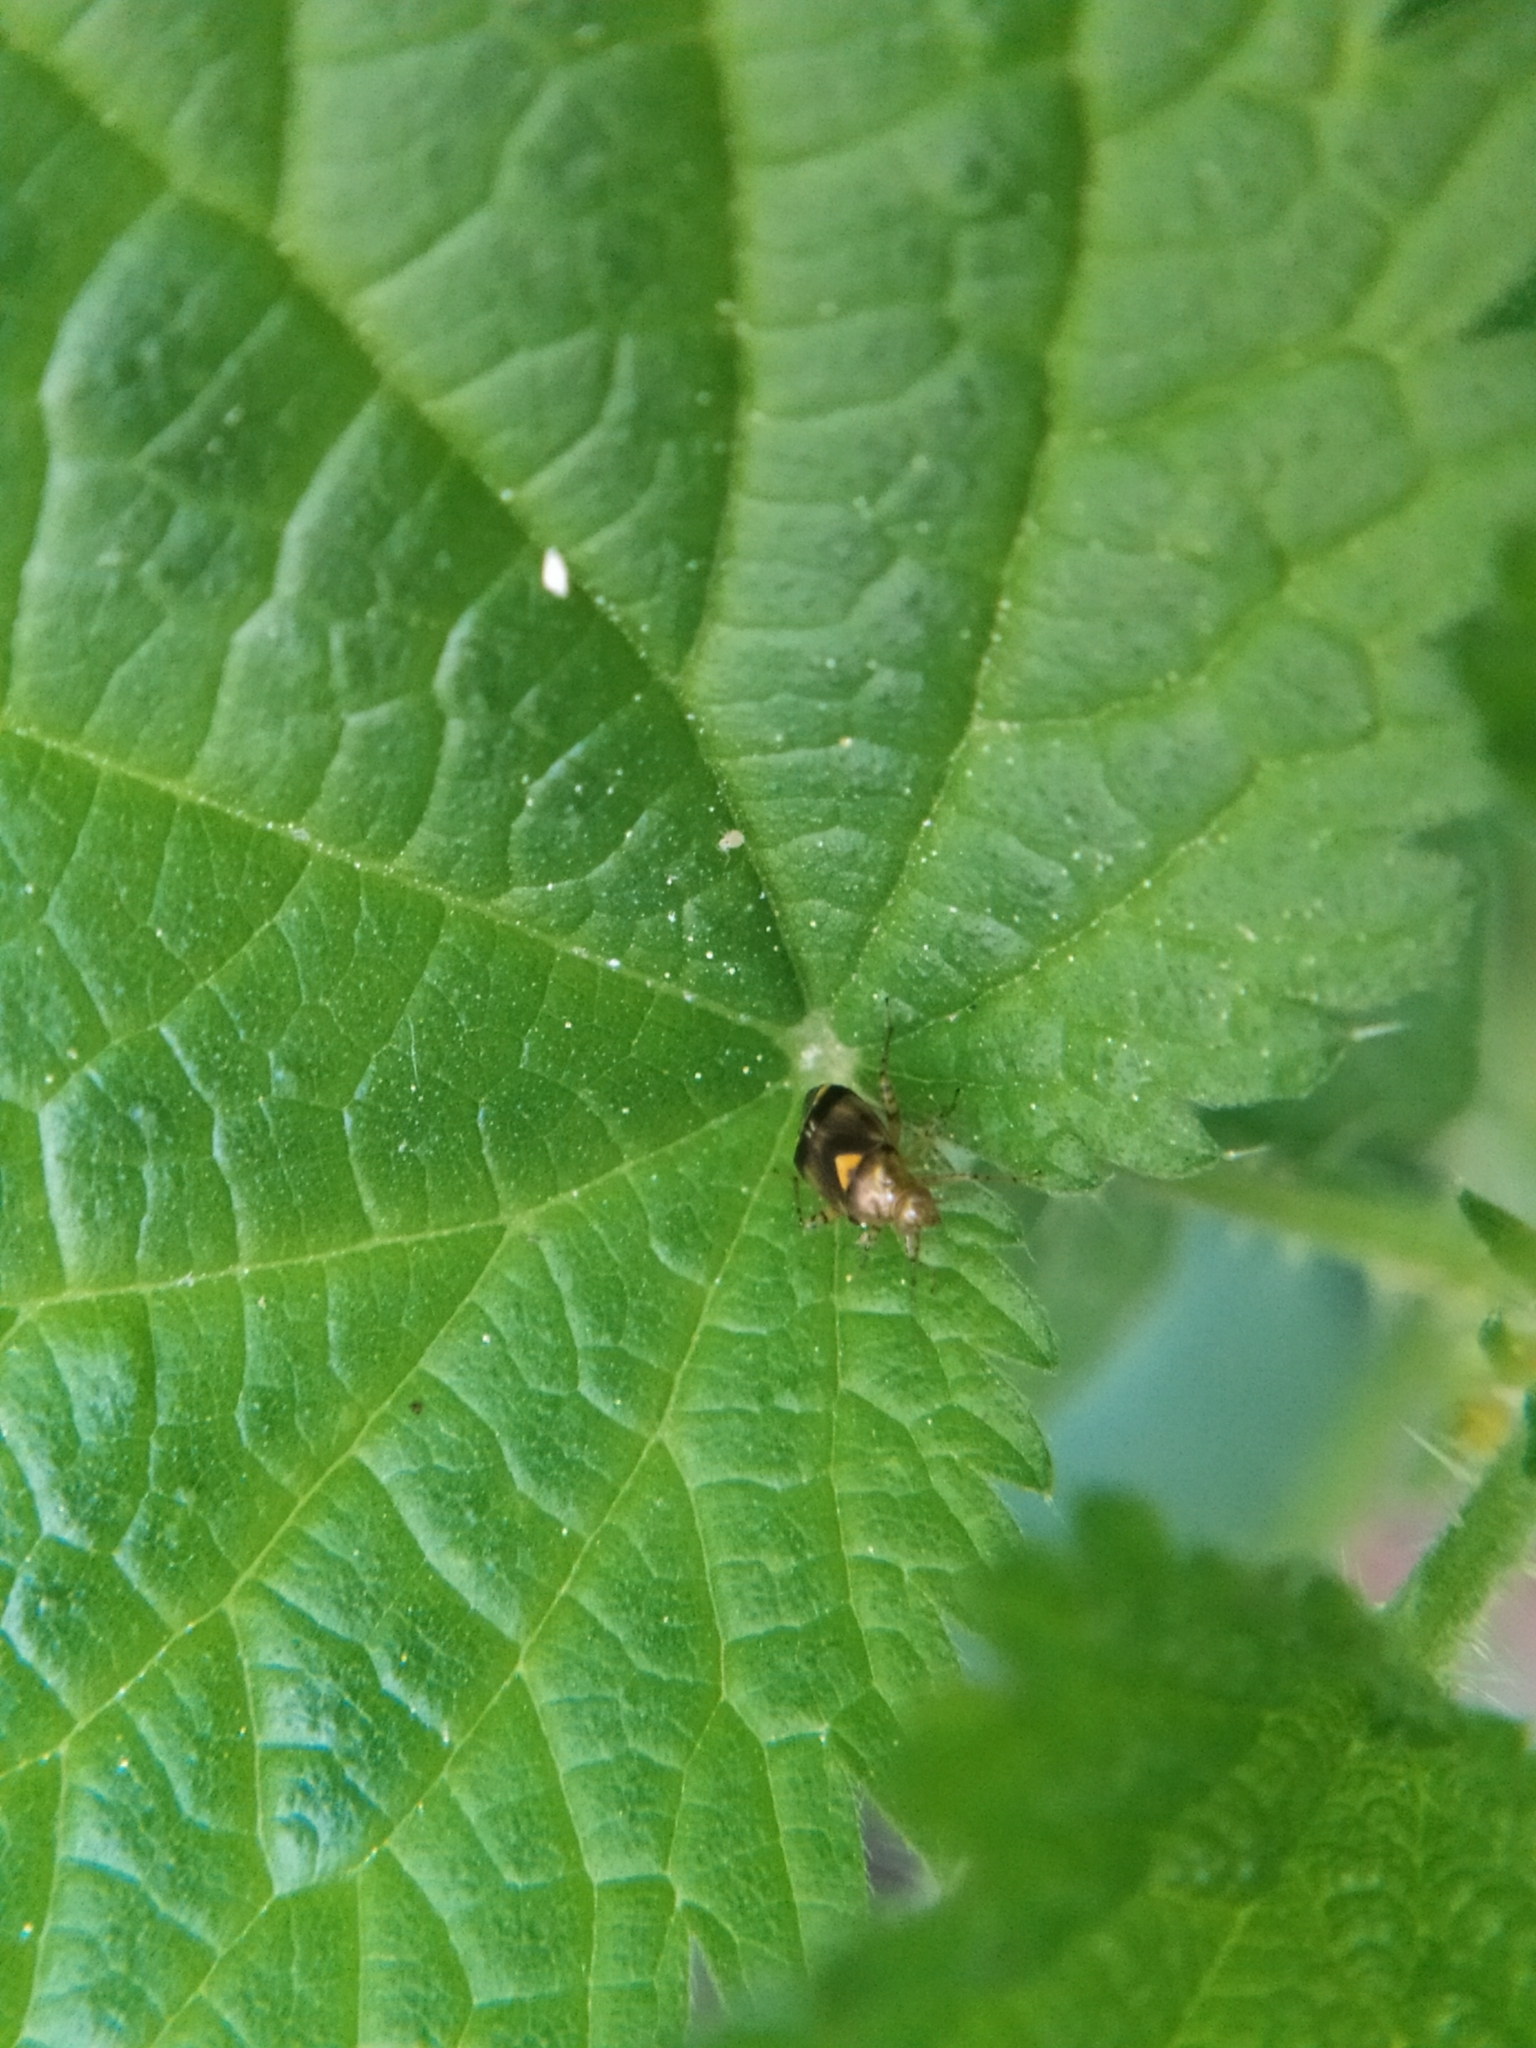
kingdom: Animalia
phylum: Arthropoda
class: Insecta
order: Hemiptera
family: Miridae
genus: Liocoris
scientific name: Liocoris tripustulatus
